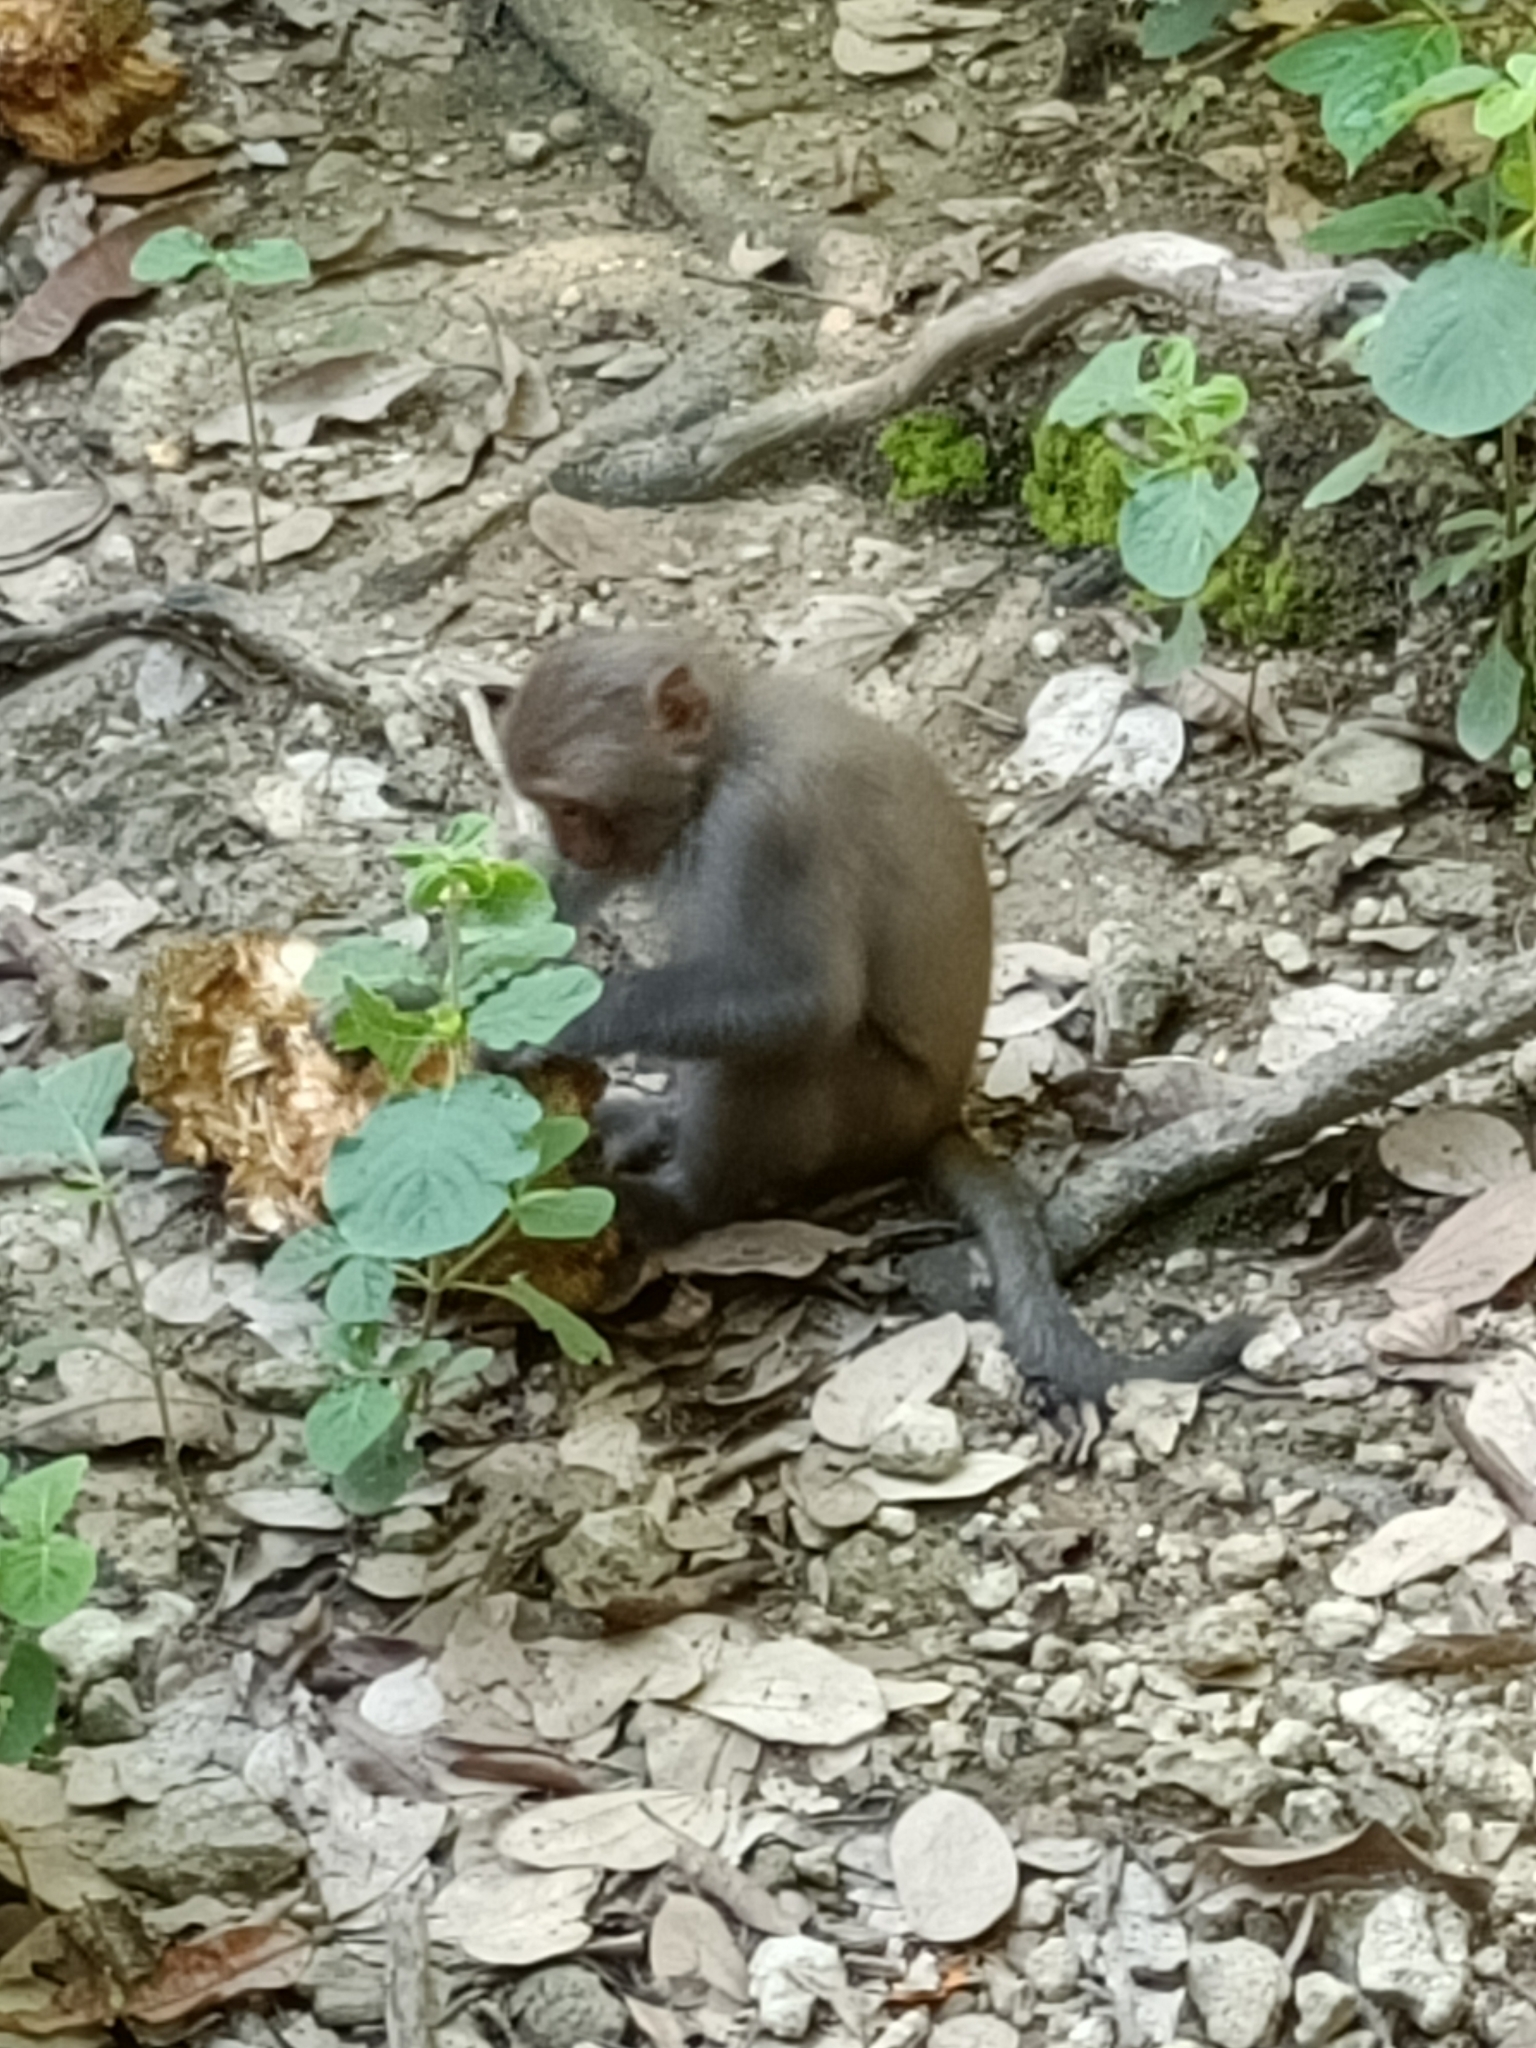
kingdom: Animalia
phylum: Chordata
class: Mammalia
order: Primates
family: Cercopithecidae
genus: Macaca
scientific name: Macaca cyclopis
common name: Formosan rock macaque
